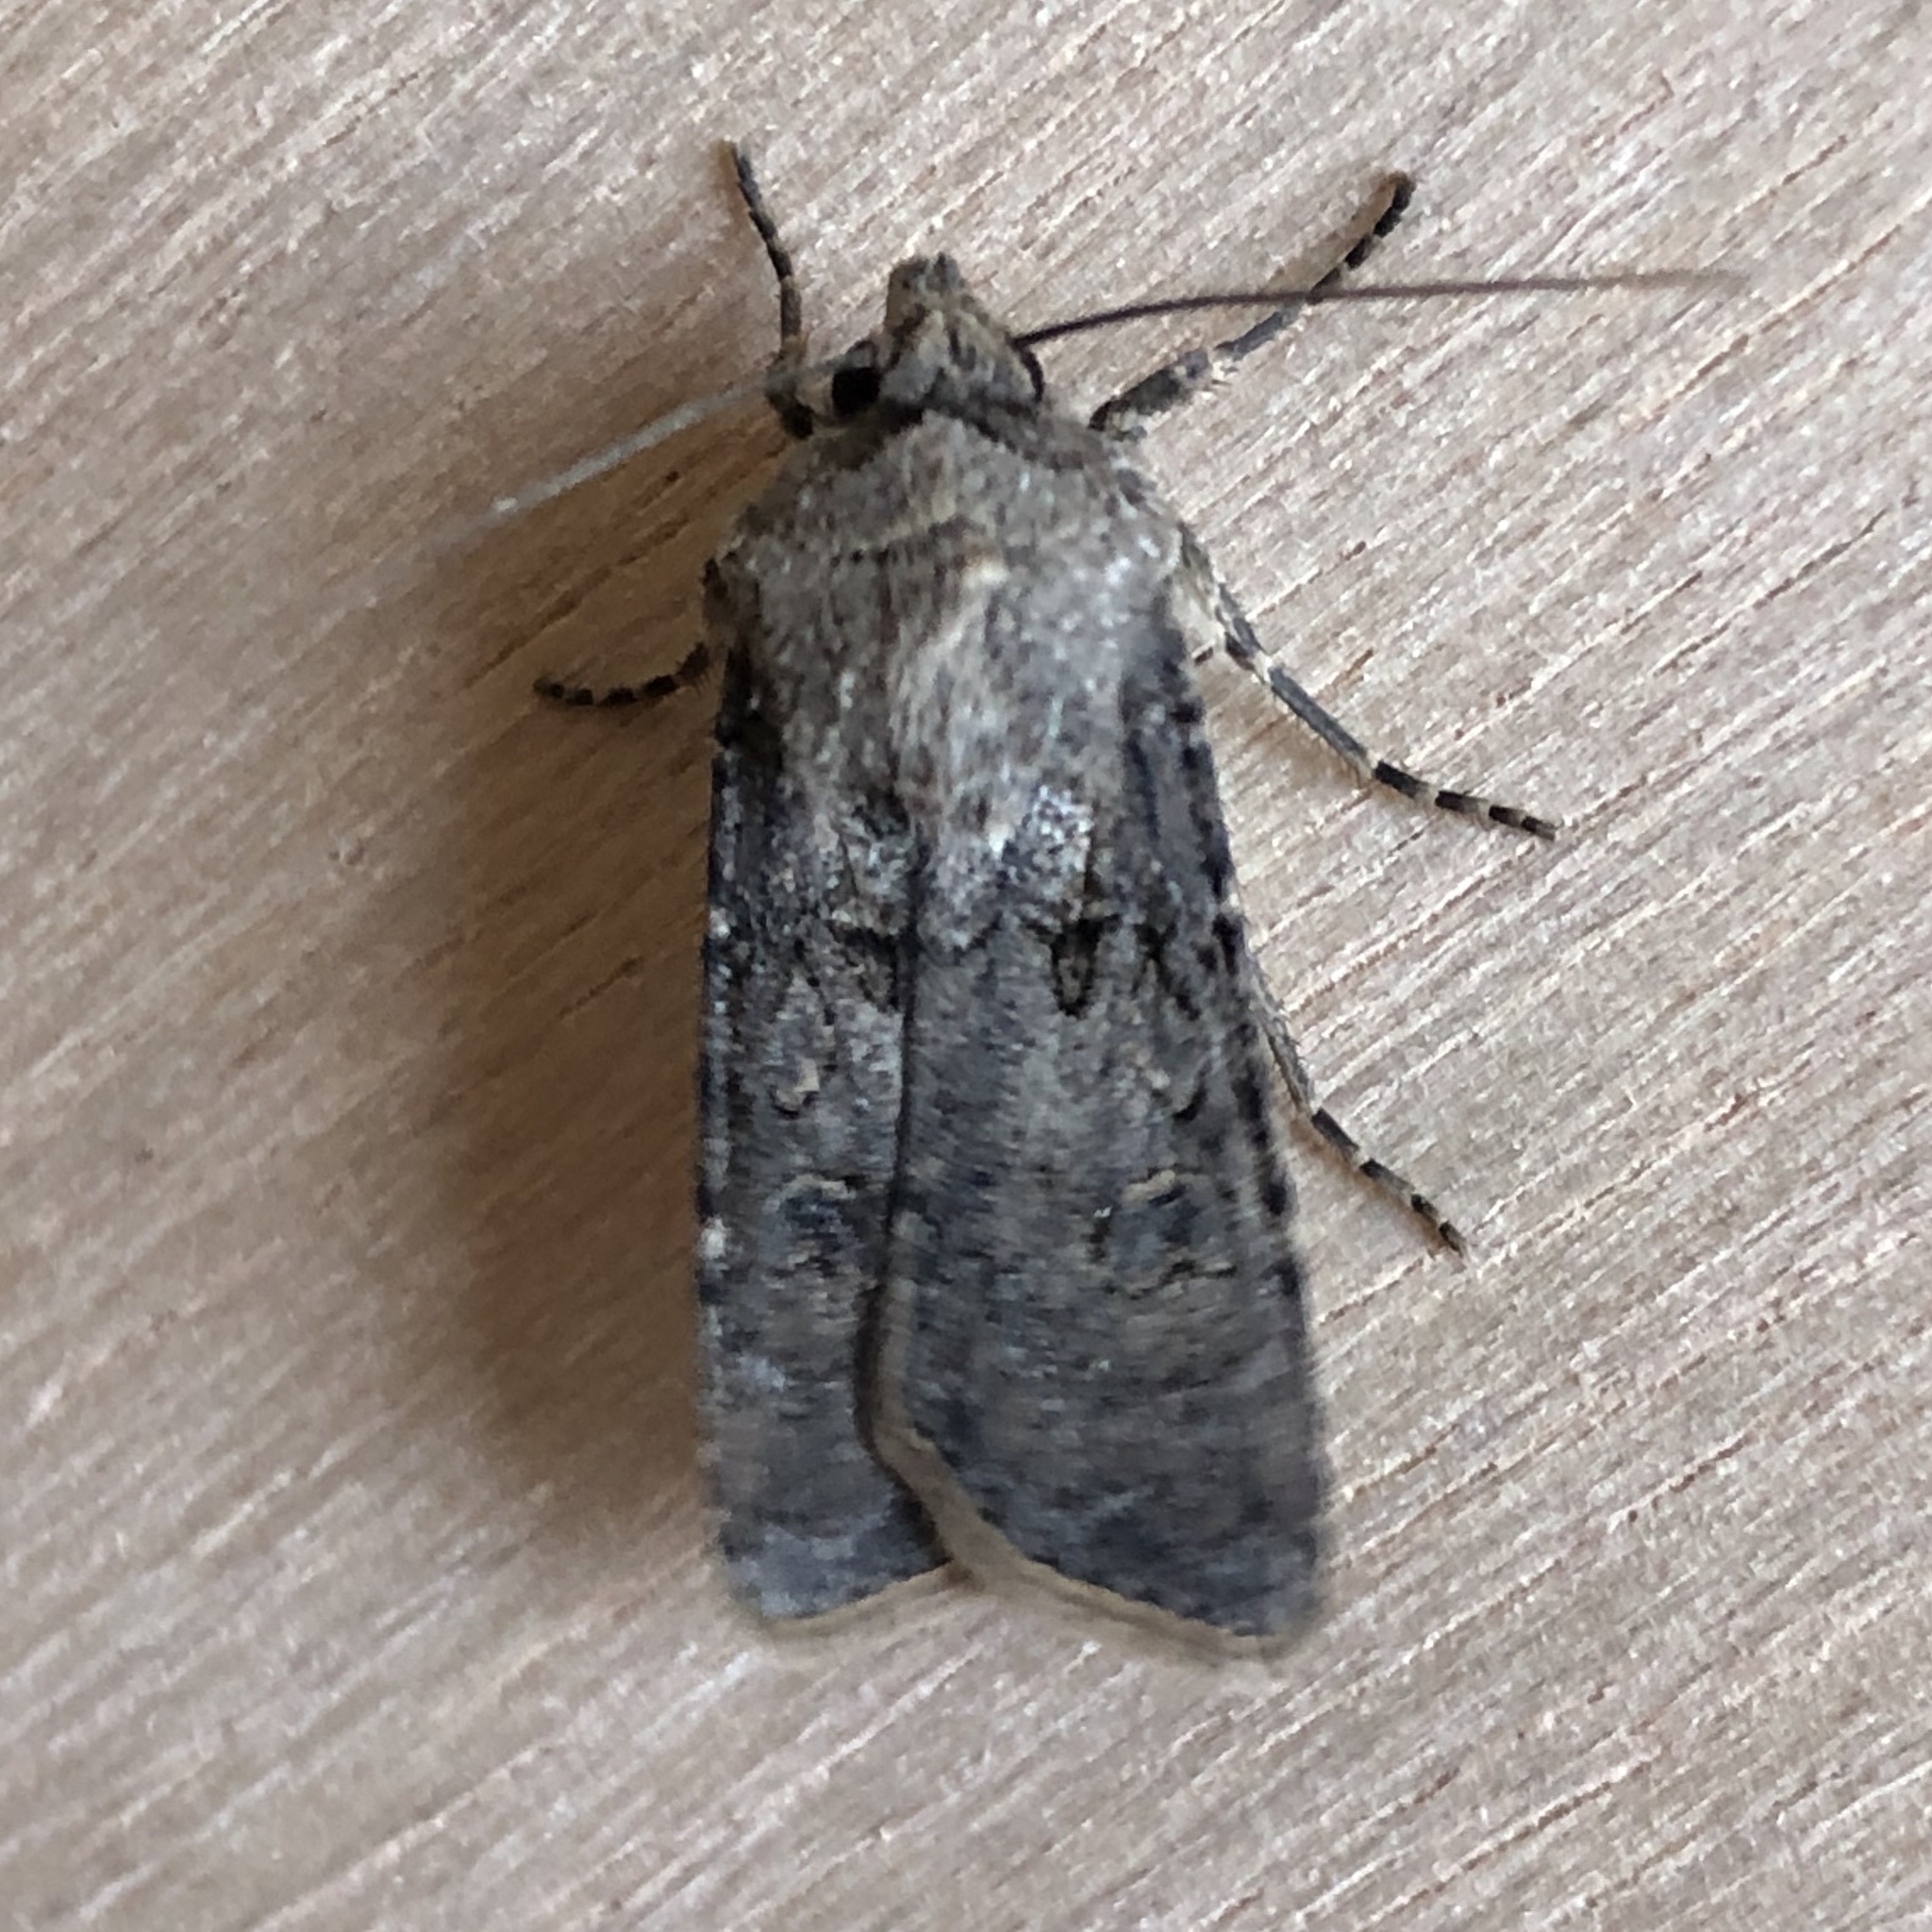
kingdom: Animalia
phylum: Arthropoda
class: Insecta
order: Lepidoptera
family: Noctuidae
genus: Agrotis
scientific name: Agrotis segetum
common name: Turnip moth
